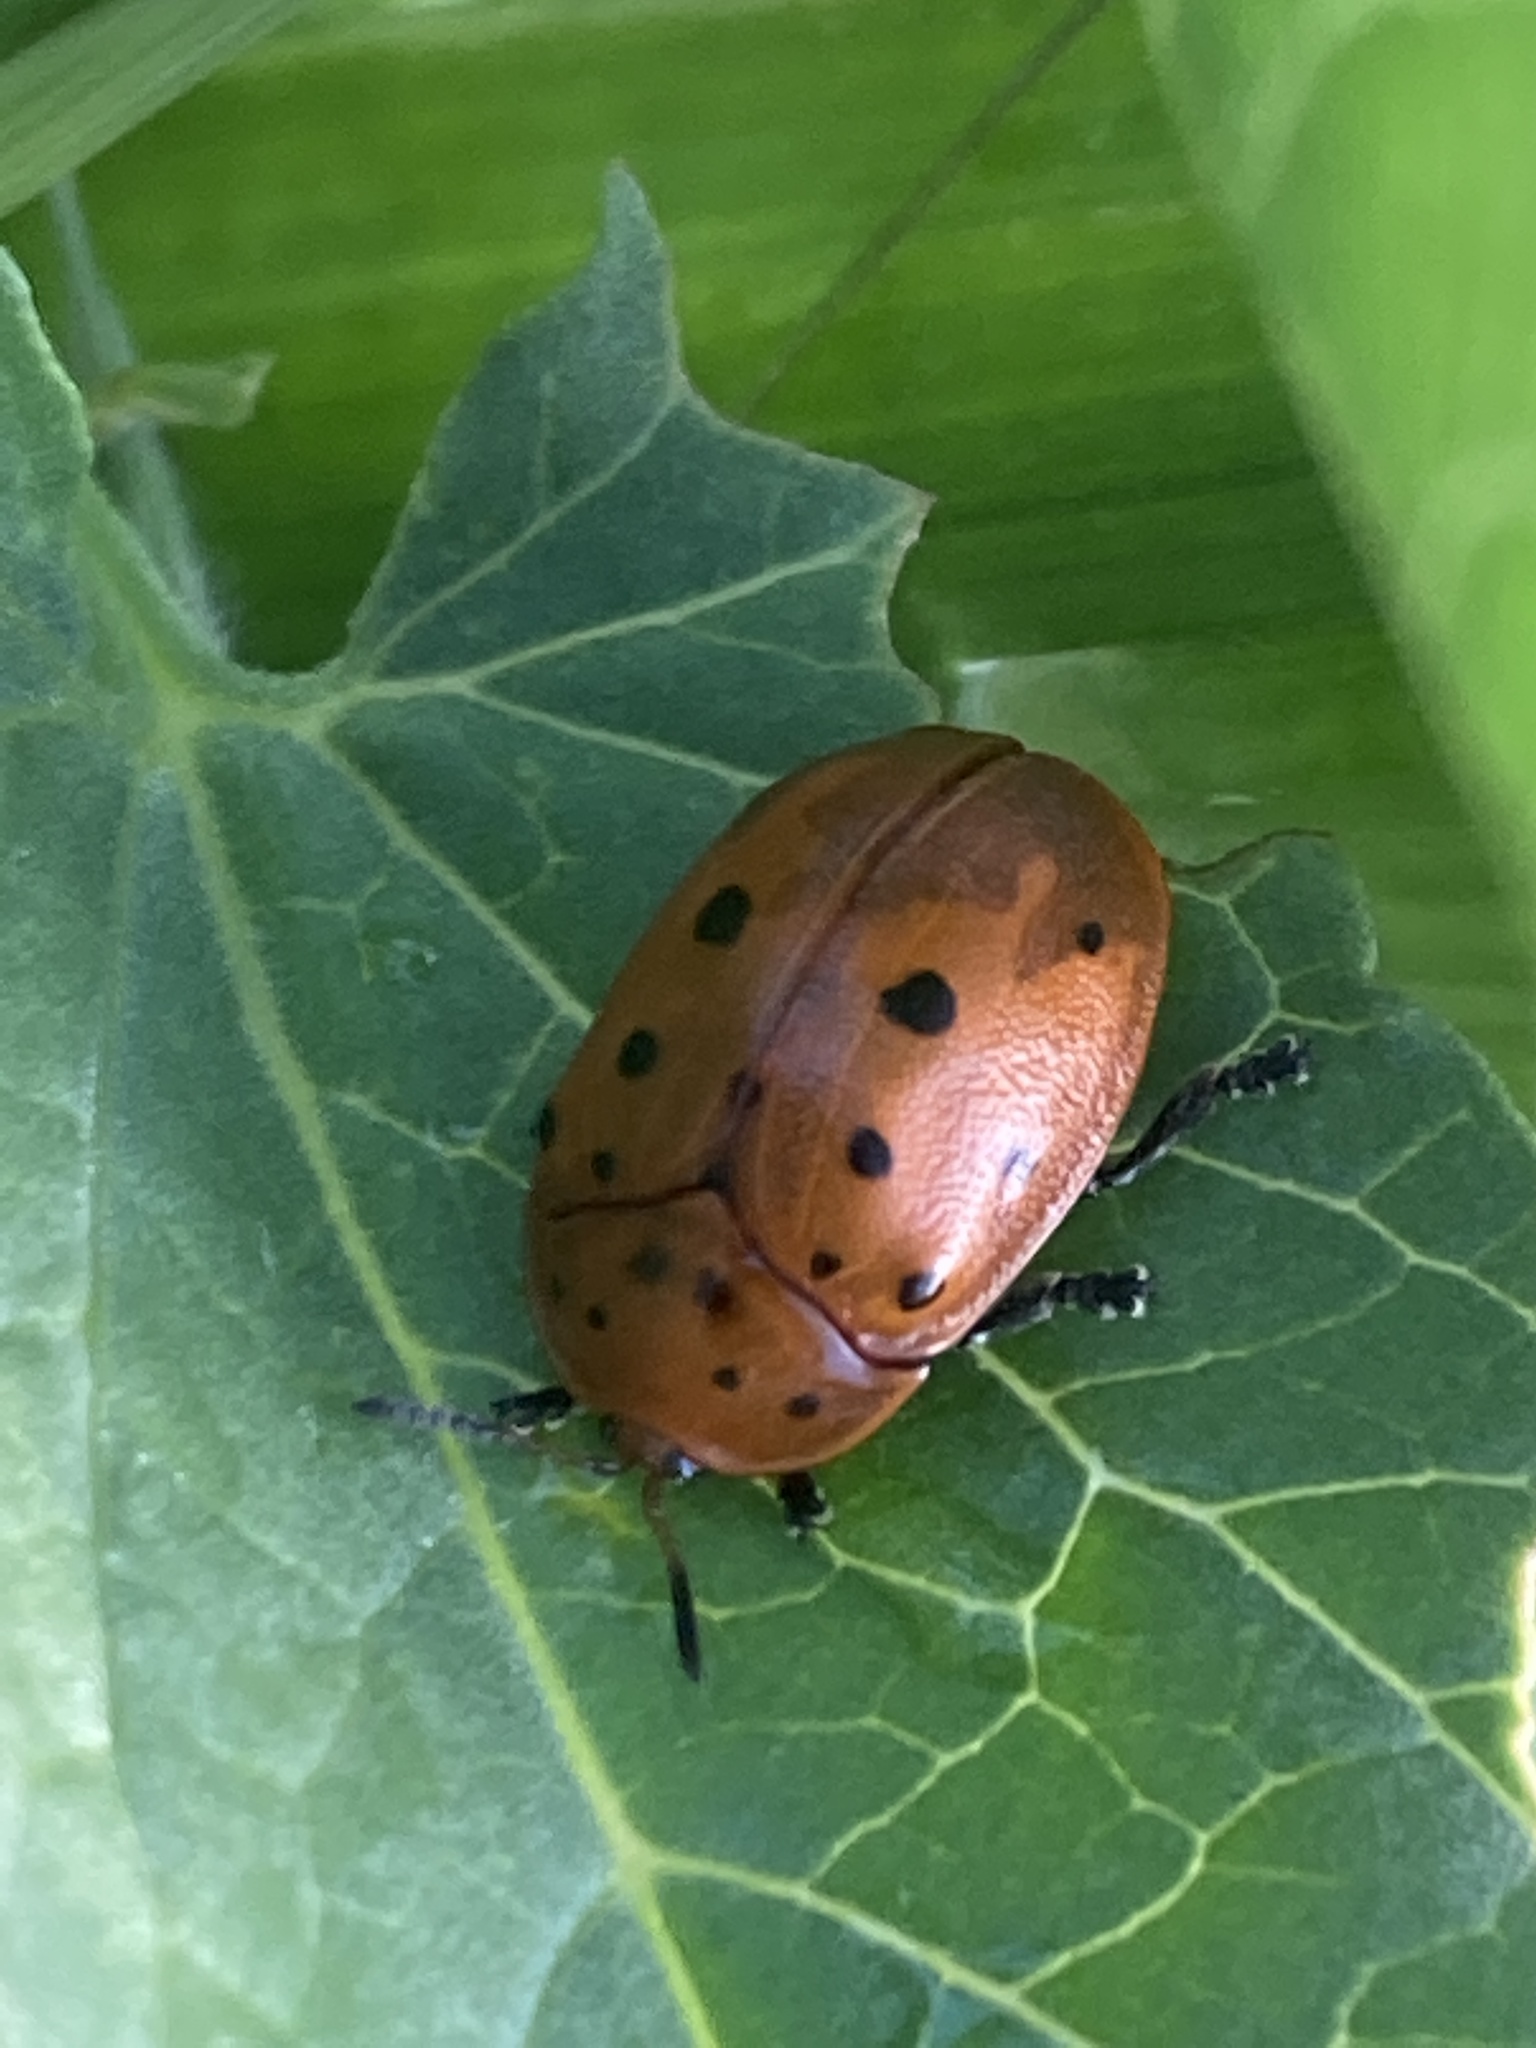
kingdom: Animalia
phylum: Arthropoda
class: Insecta
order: Coleoptera
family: Chrysomelidae
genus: Chelymorpha
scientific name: Chelymorpha cassidea
